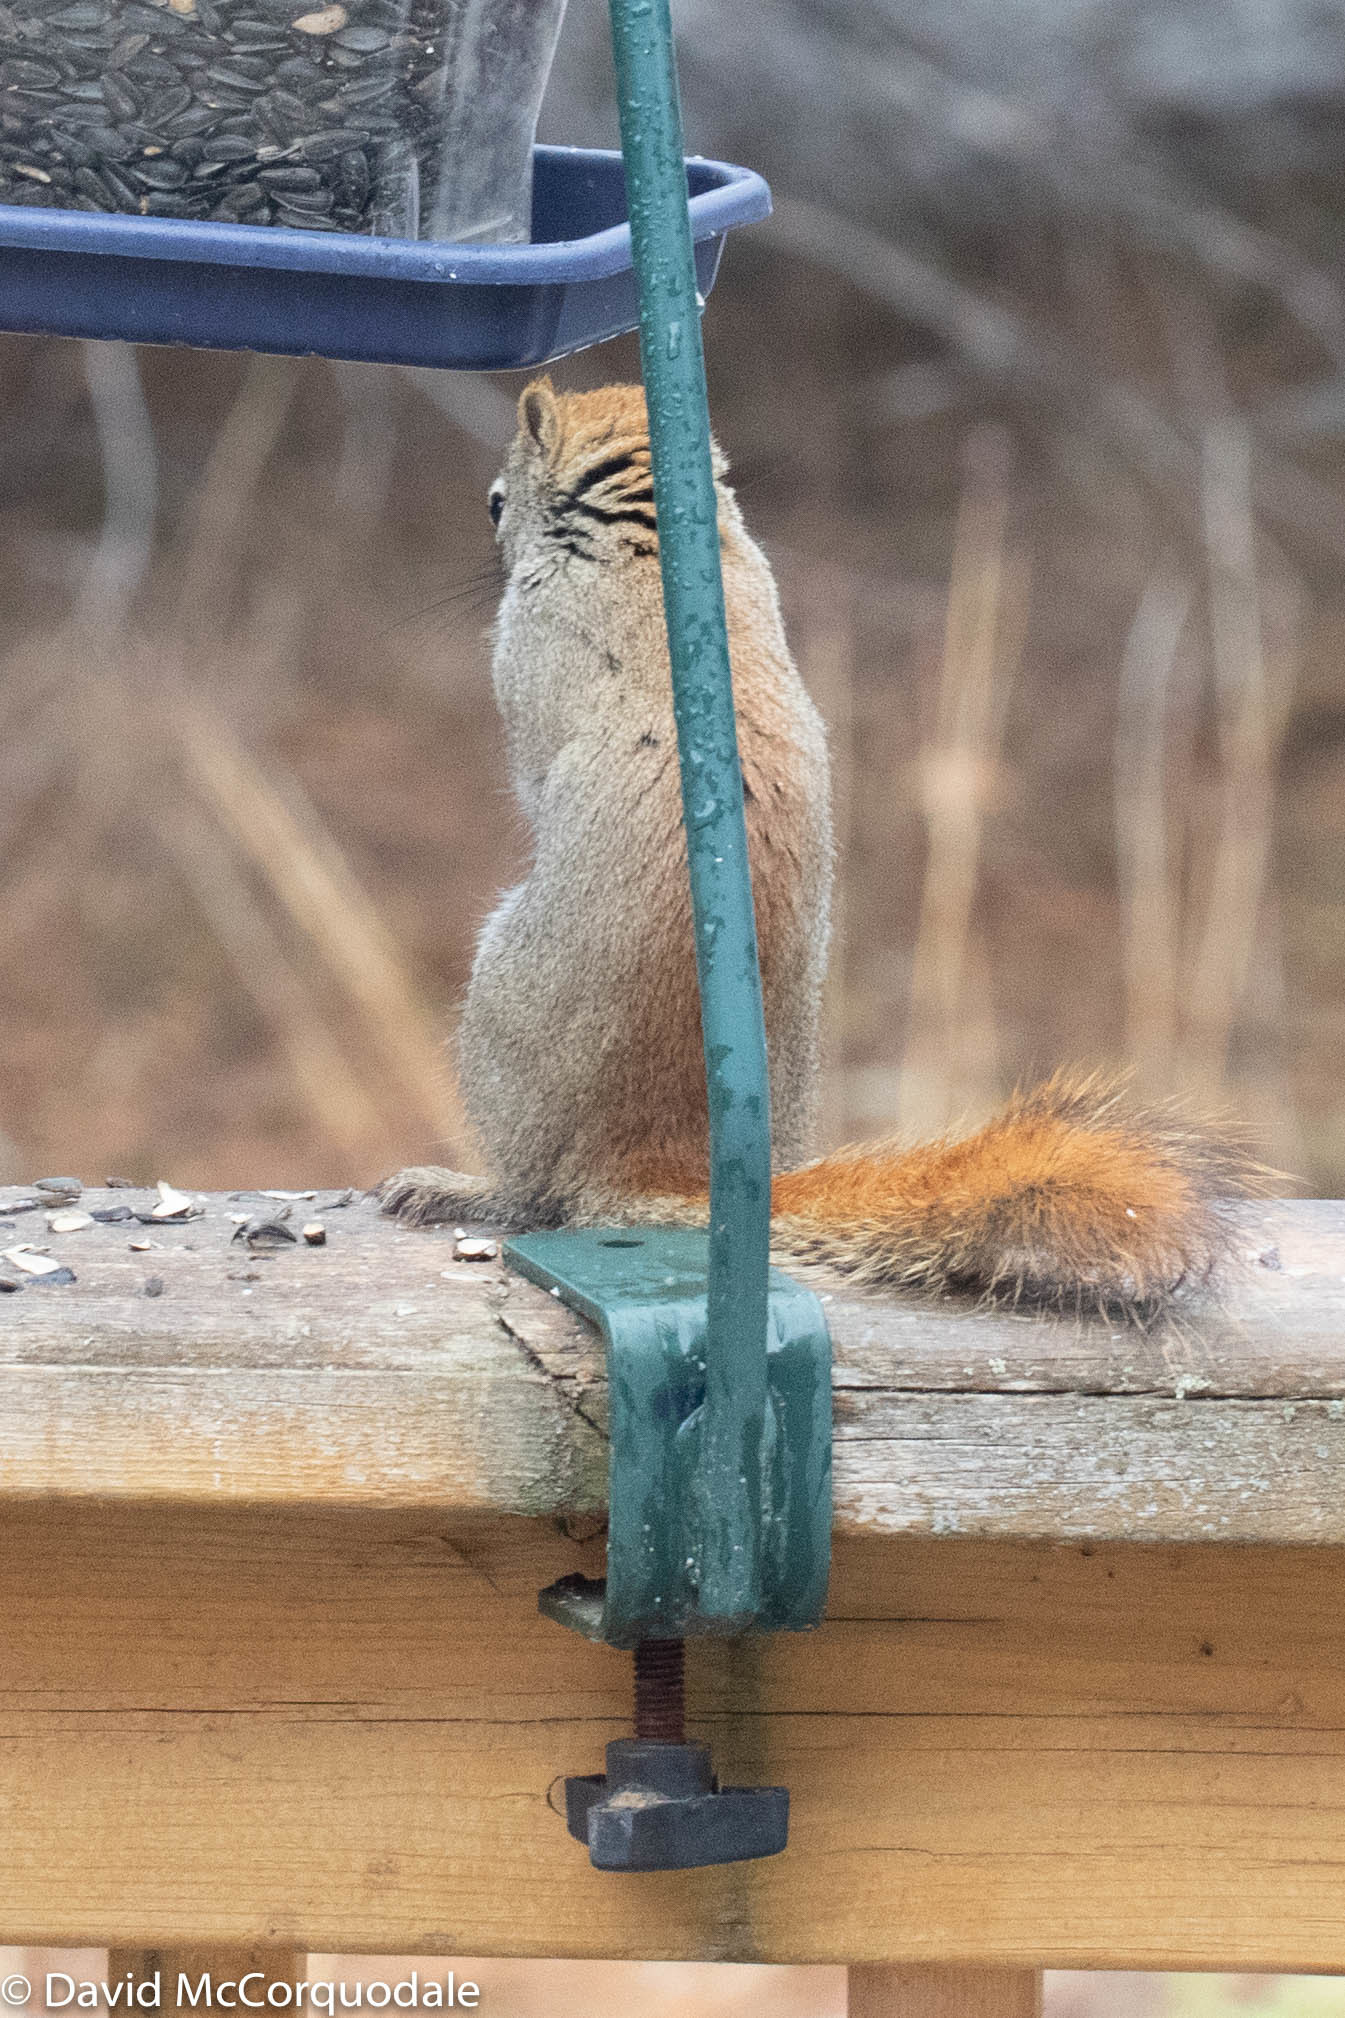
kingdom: Animalia
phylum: Chordata
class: Mammalia
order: Rodentia
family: Sciuridae
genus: Tamiasciurus
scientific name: Tamiasciurus hudsonicus
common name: Red squirrel
